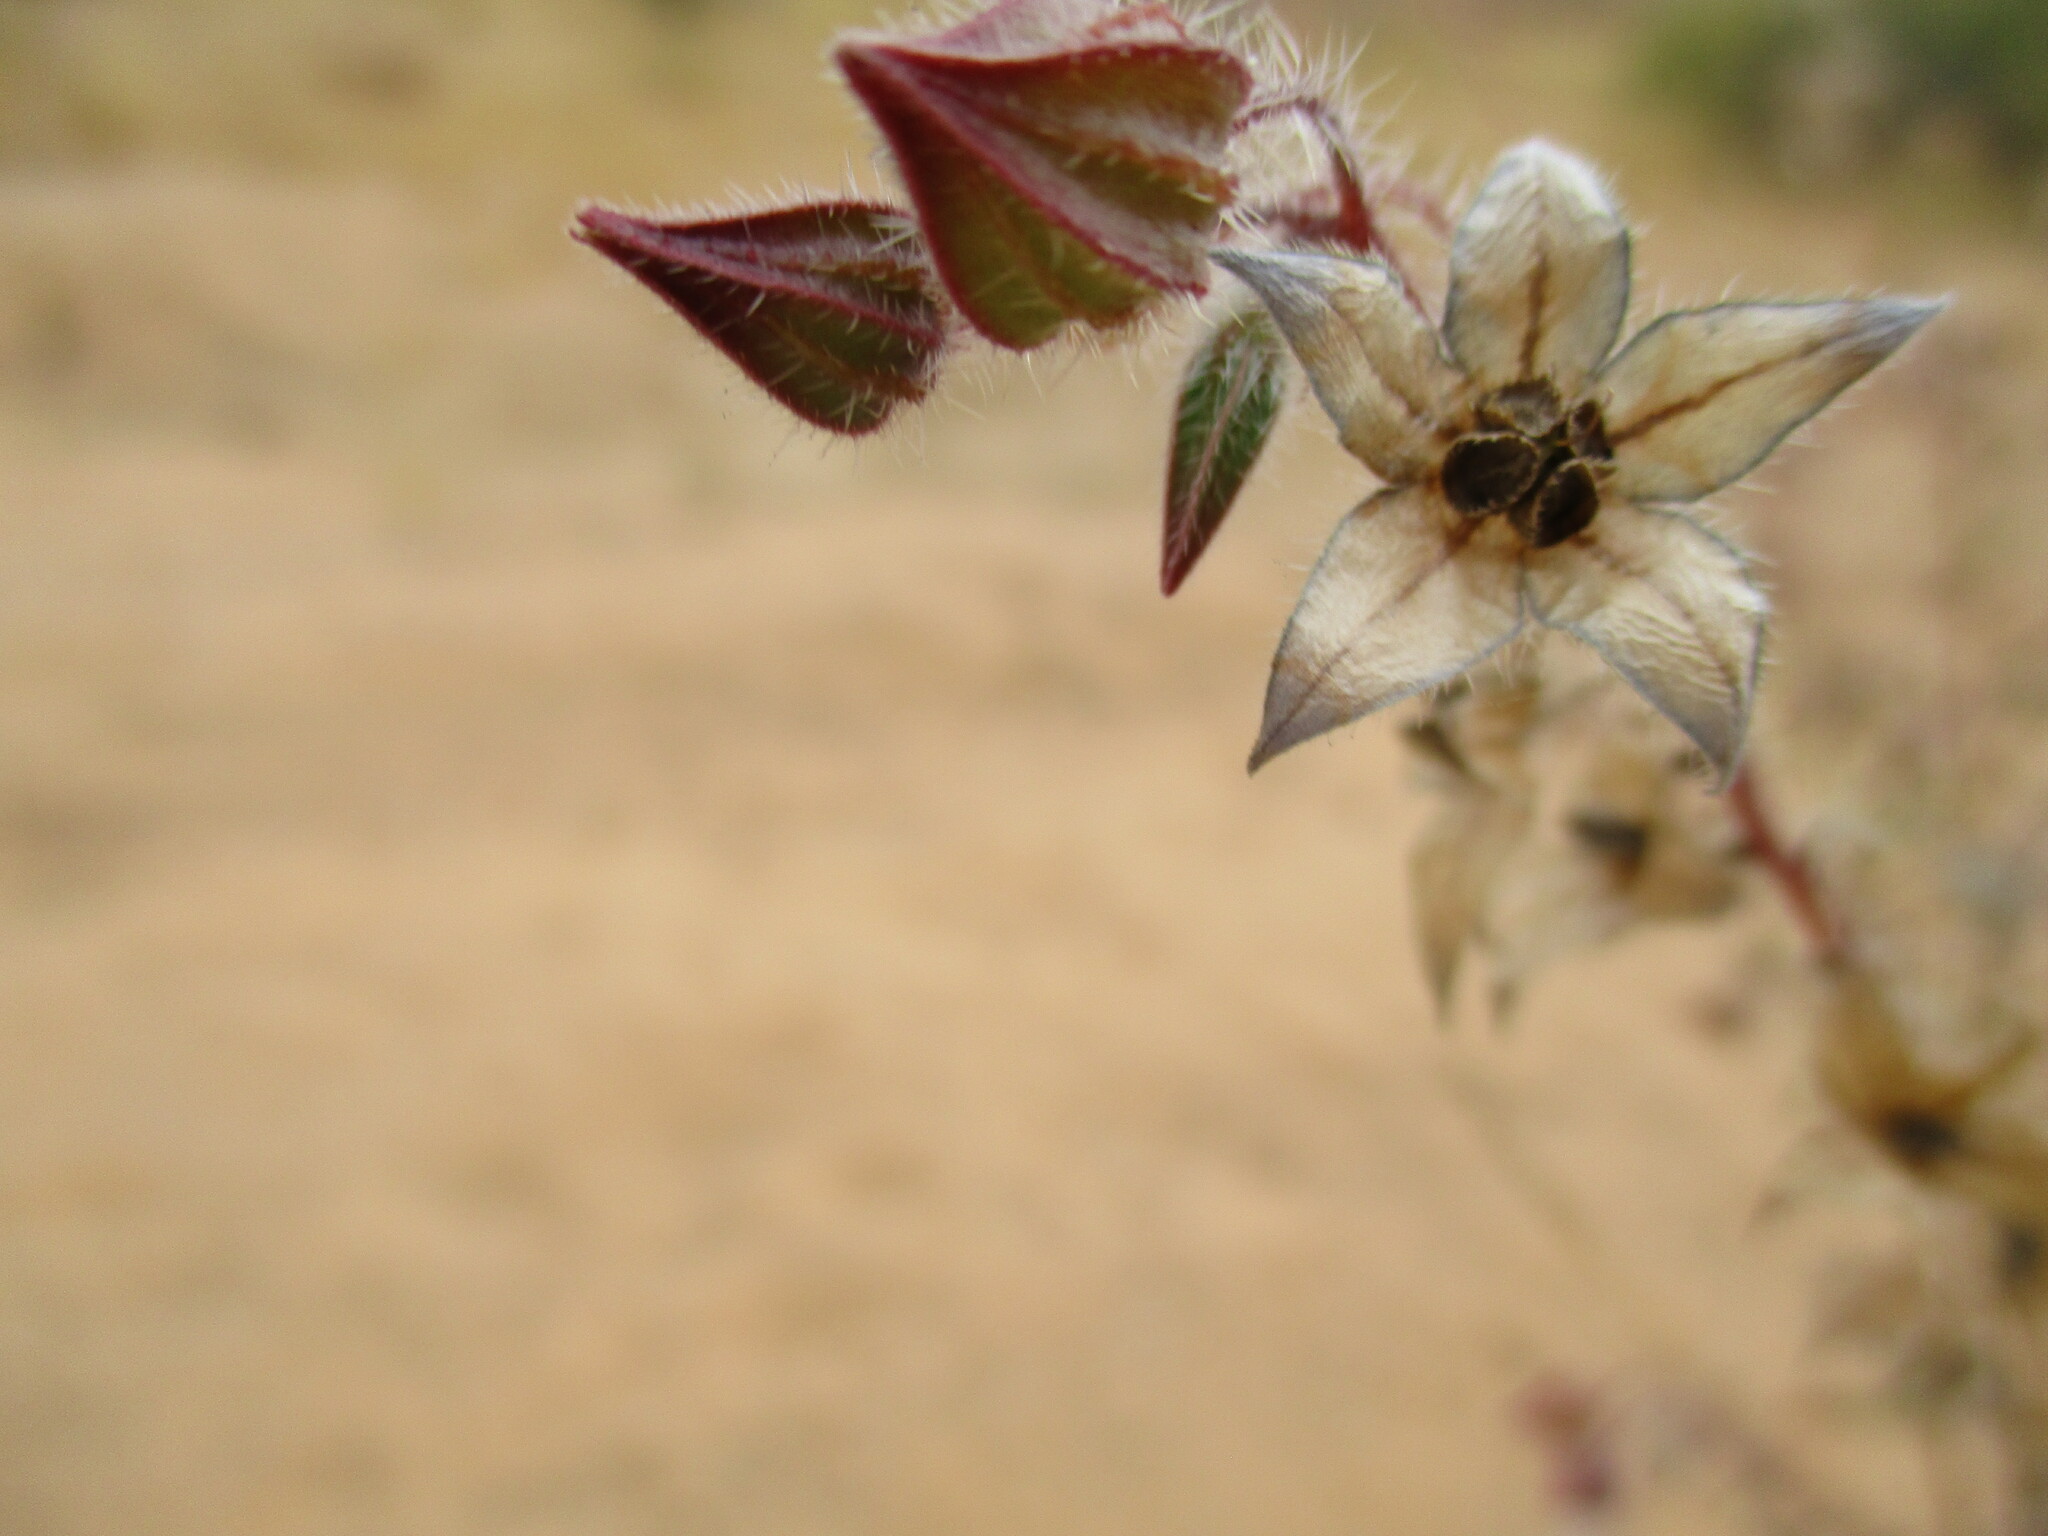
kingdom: Plantae
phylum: Tracheophyta
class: Magnoliopsida
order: Boraginales
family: Boraginaceae
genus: Trichodesma
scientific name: Trichodesma africanum
